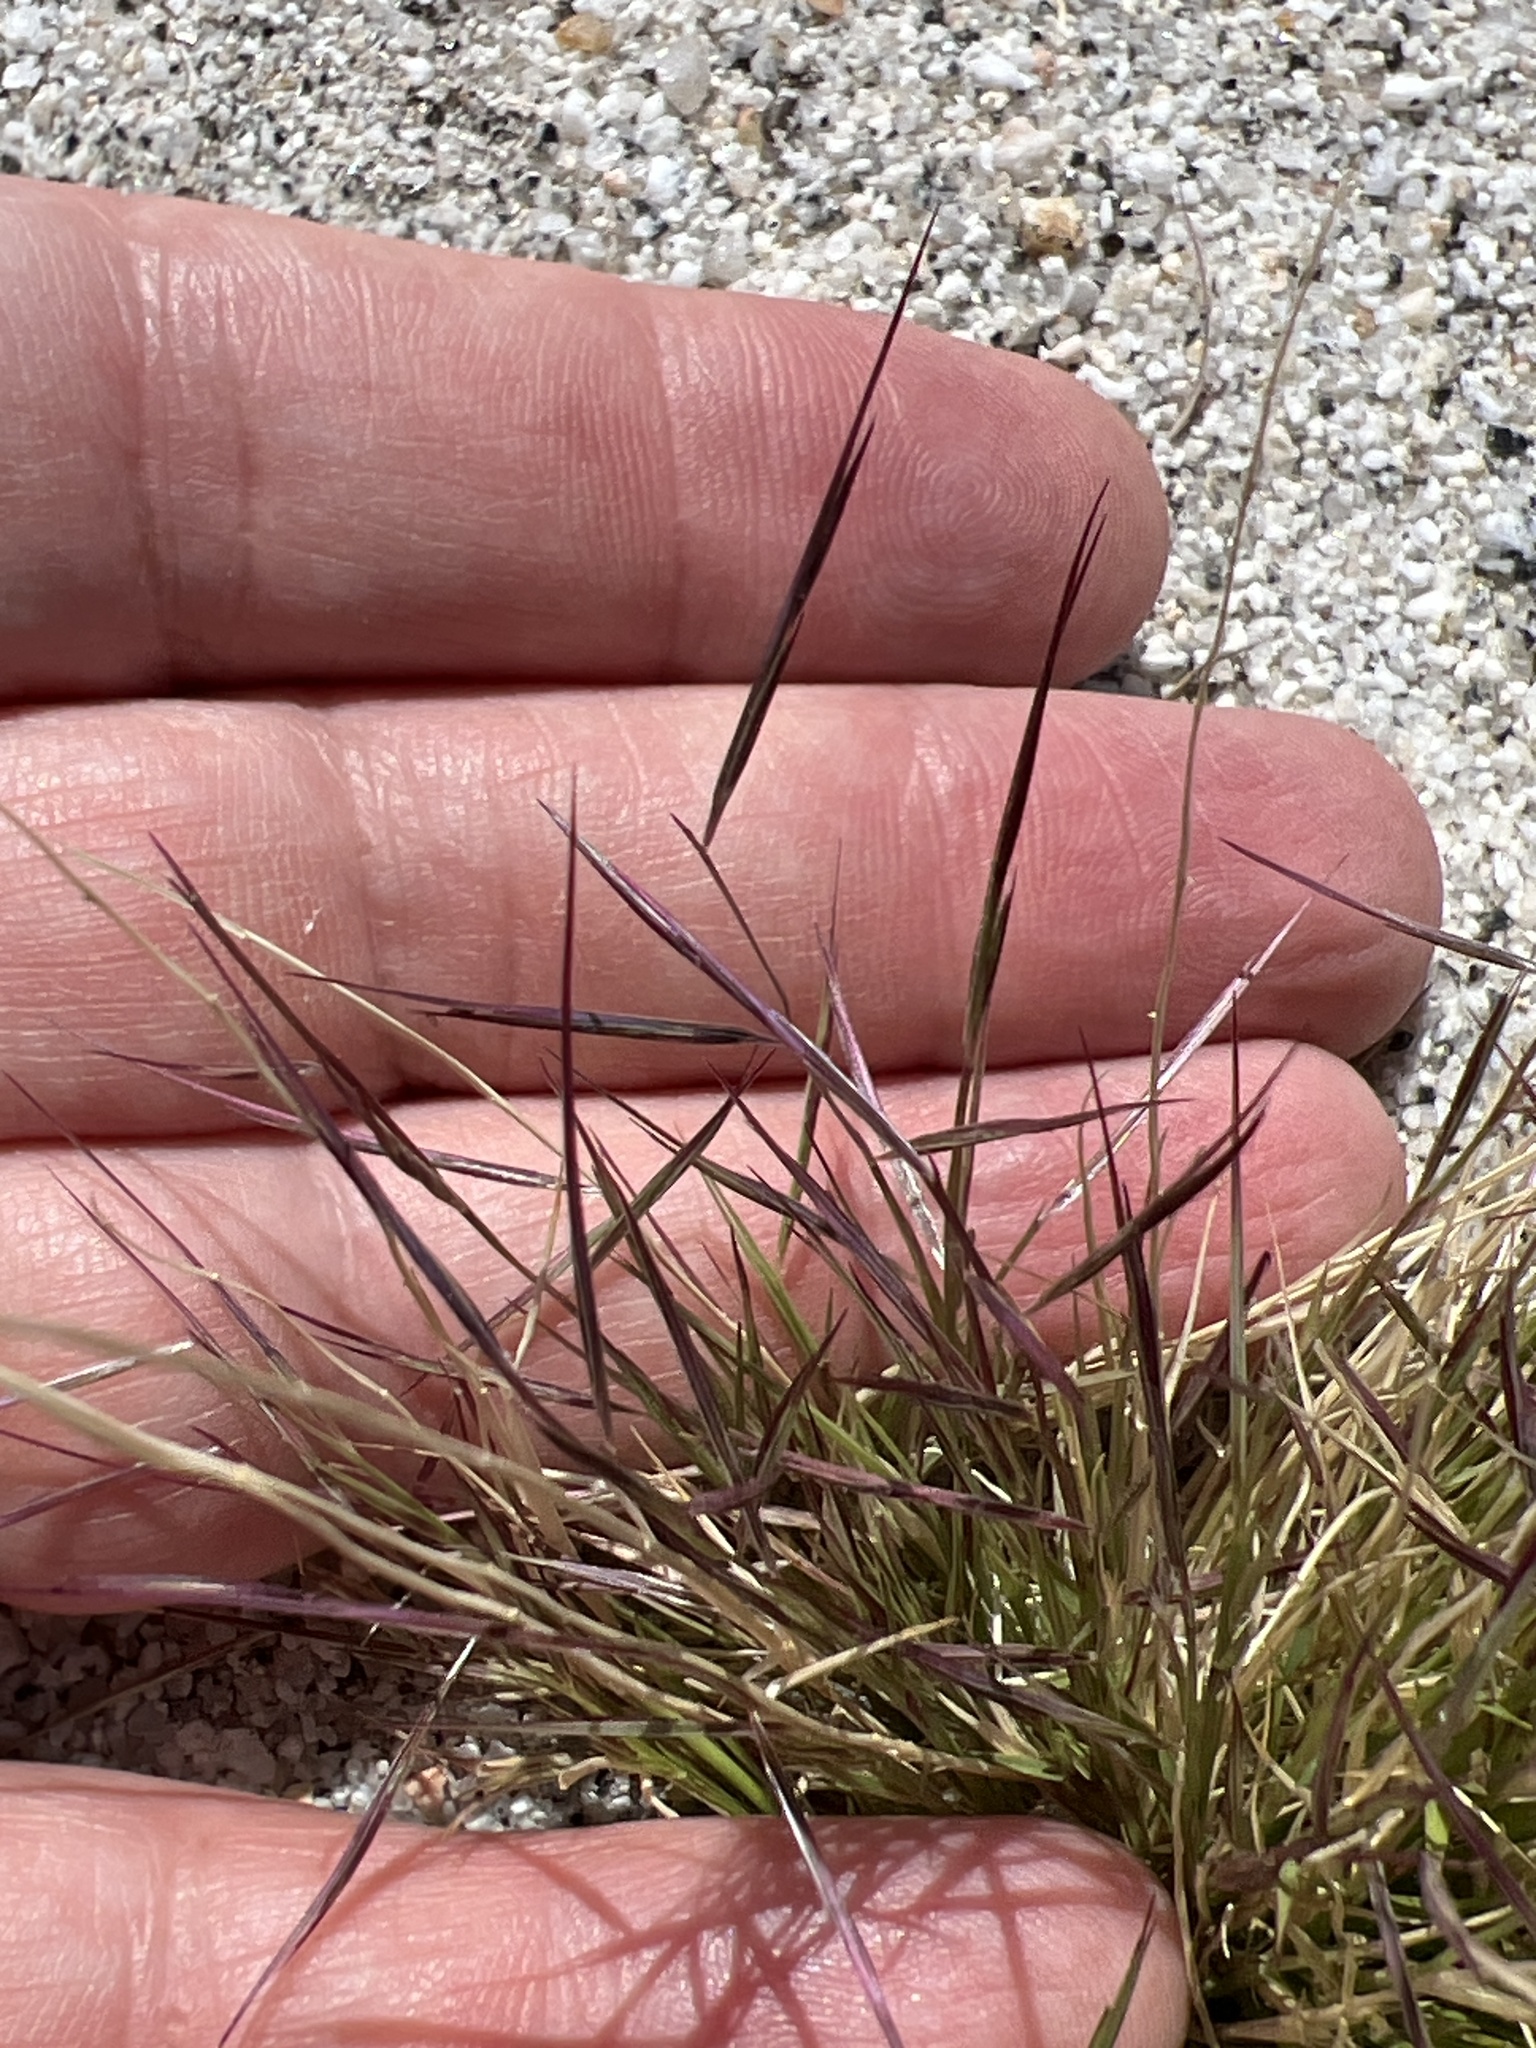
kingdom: Plantae
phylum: Tracheophyta
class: Liliopsida
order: Poales
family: Poaceae
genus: Bouteloua
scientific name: Bouteloua aristidoides
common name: Needle grama
